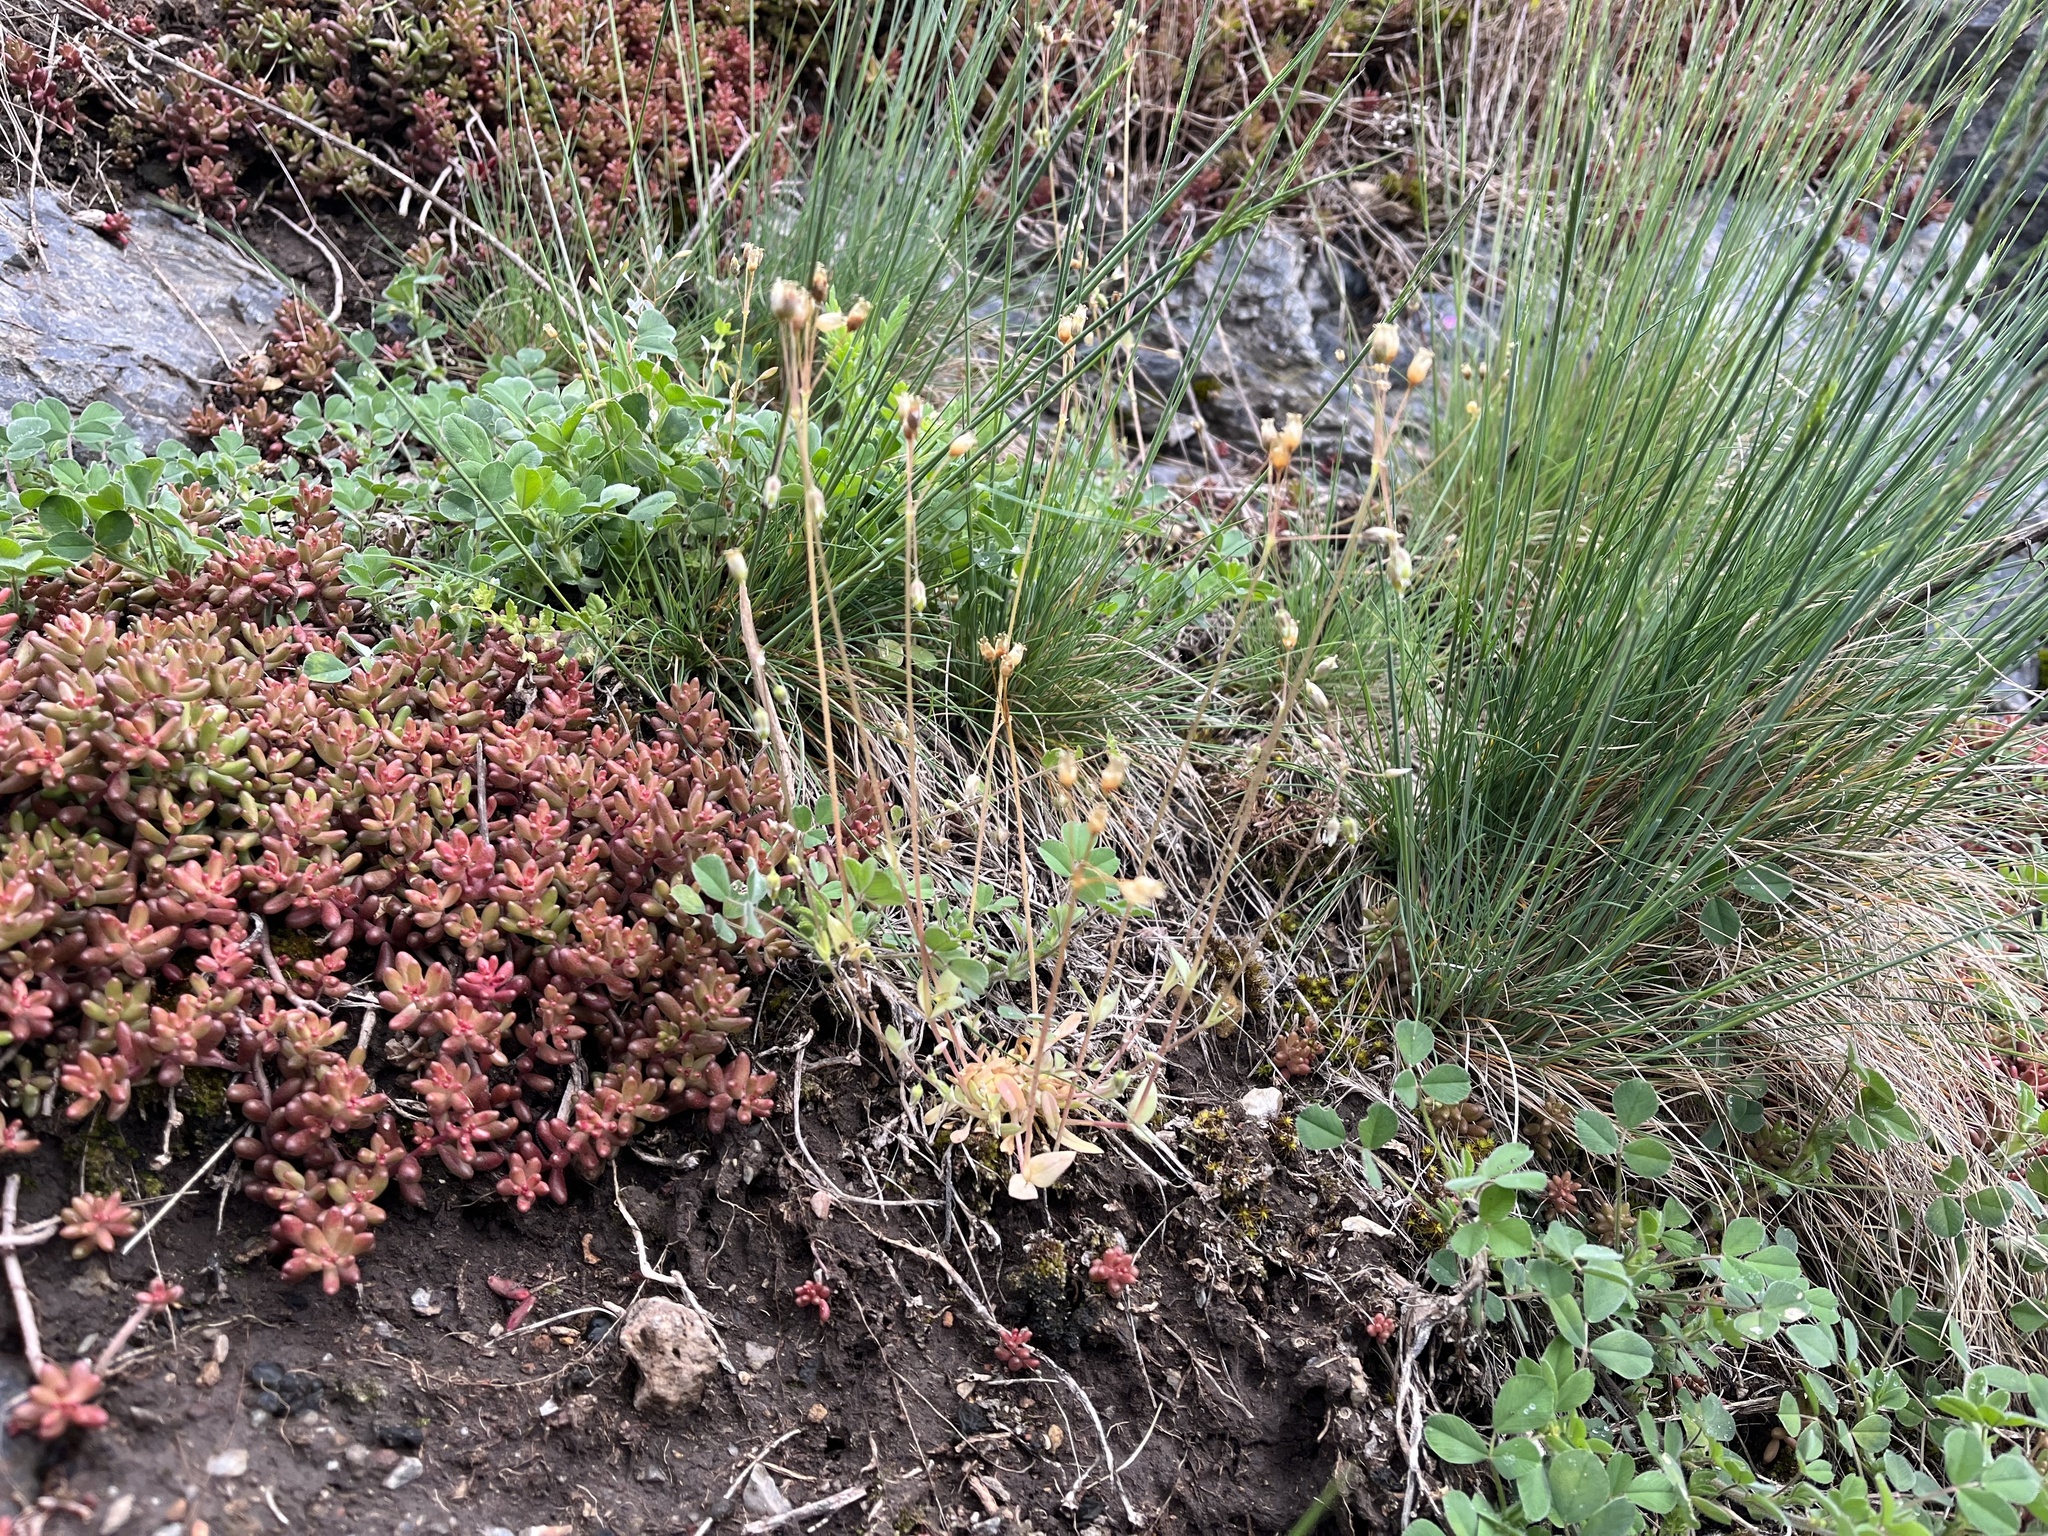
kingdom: Plantae
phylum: Tracheophyta
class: Magnoliopsida
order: Caryophyllales
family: Caryophyllaceae
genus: Holosteum
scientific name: Holosteum umbellatum
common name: Jagged chickweed
